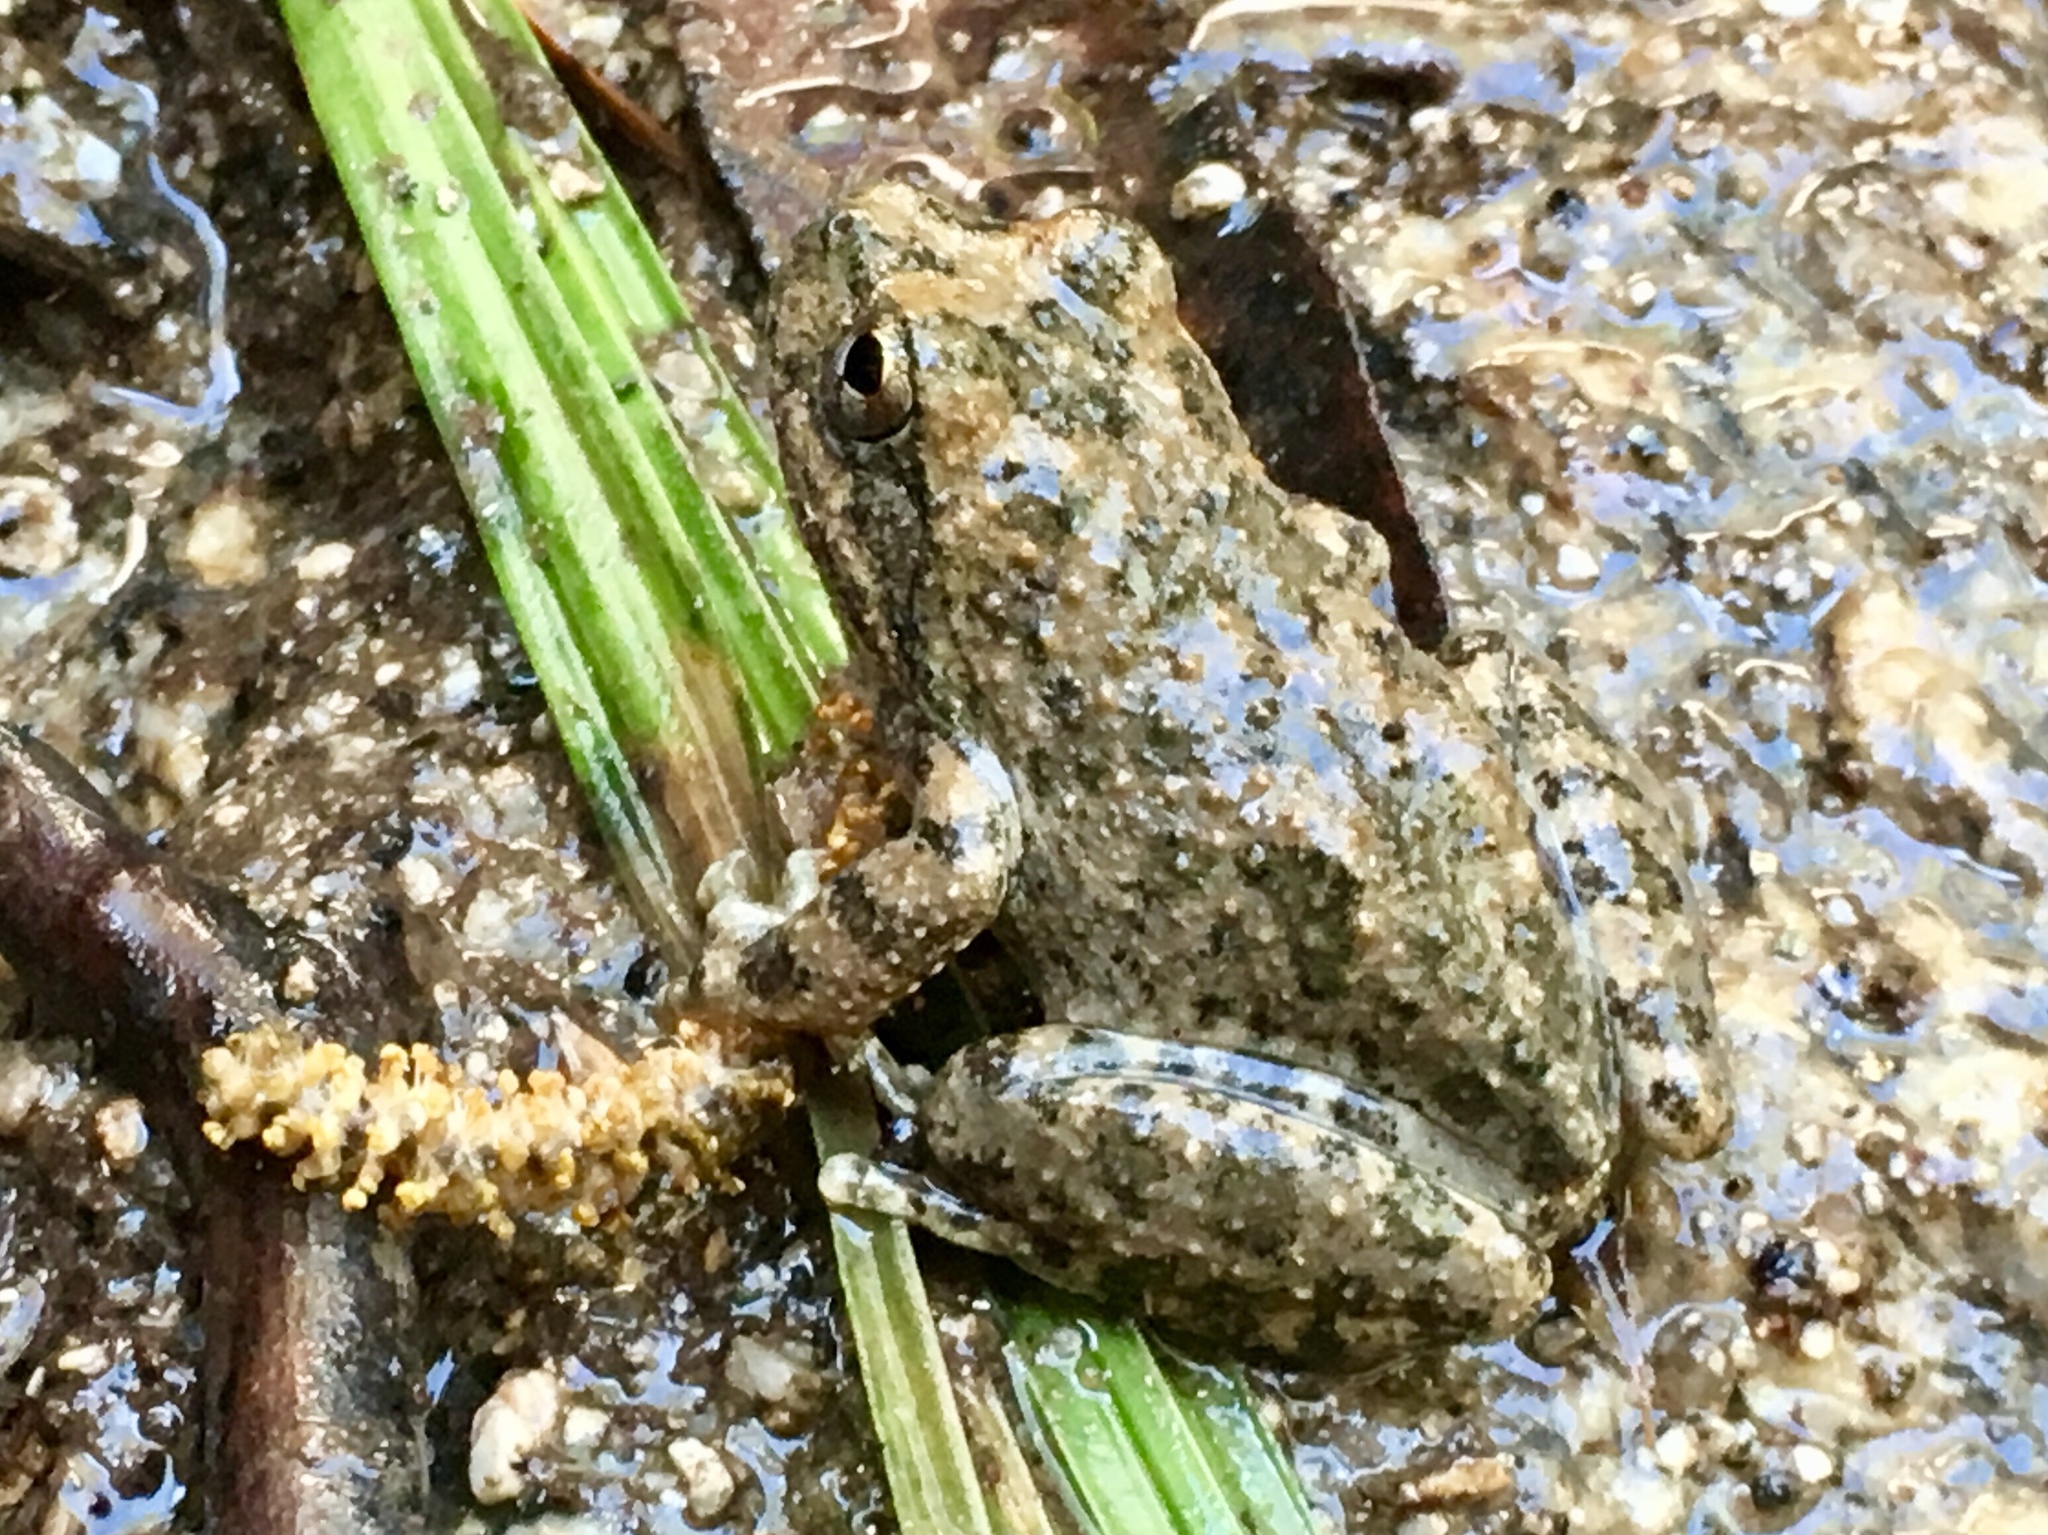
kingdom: Animalia
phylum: Chordata
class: Amphibia
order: Anura
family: Hylidae
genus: Pseudacris
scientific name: Pseudacris cadaverina
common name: California chorus frog
